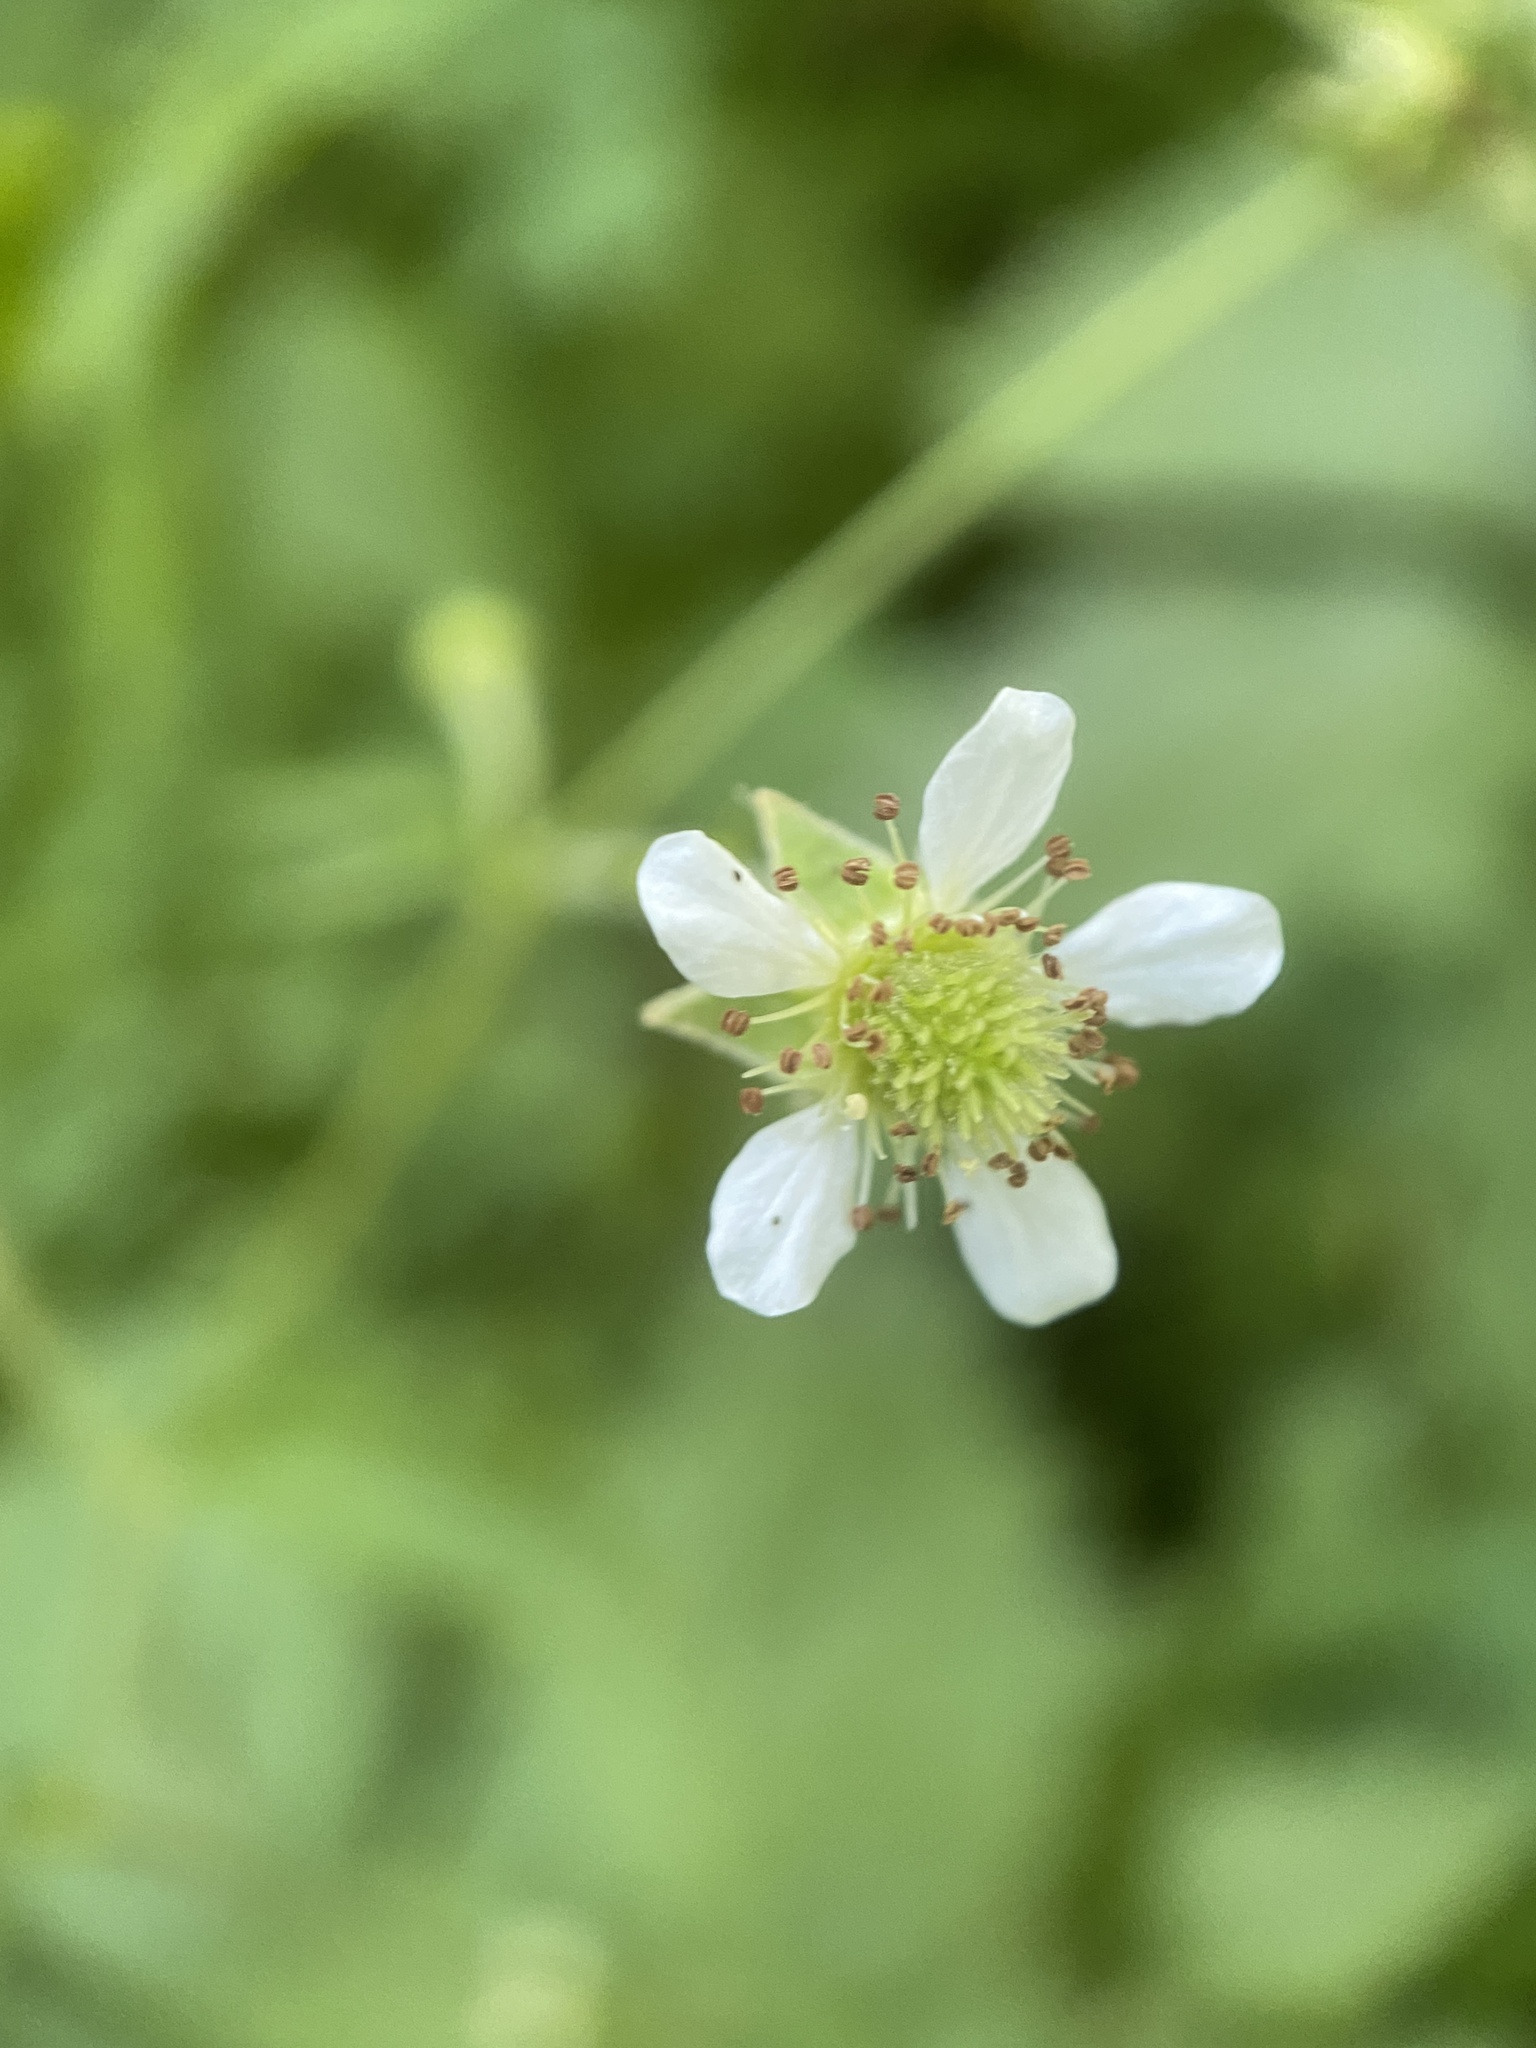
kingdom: Plantae
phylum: Tracheophyta
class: Magnoliopsida
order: Rosales
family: Rosaceae
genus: Geum
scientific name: Geum canadense
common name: White avens
